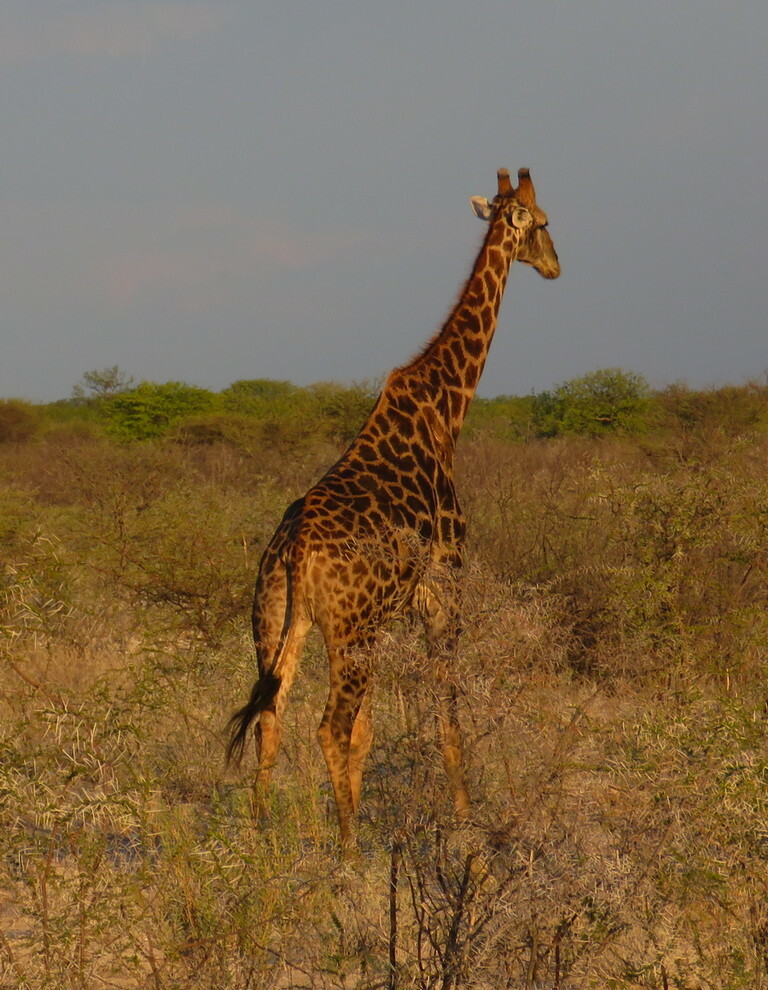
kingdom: Animalia
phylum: Chordata
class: Mammalia
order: Artiodactyla
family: Giraffidae
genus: Giraffa
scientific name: Giraffa giraffa
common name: Southern giraffe
